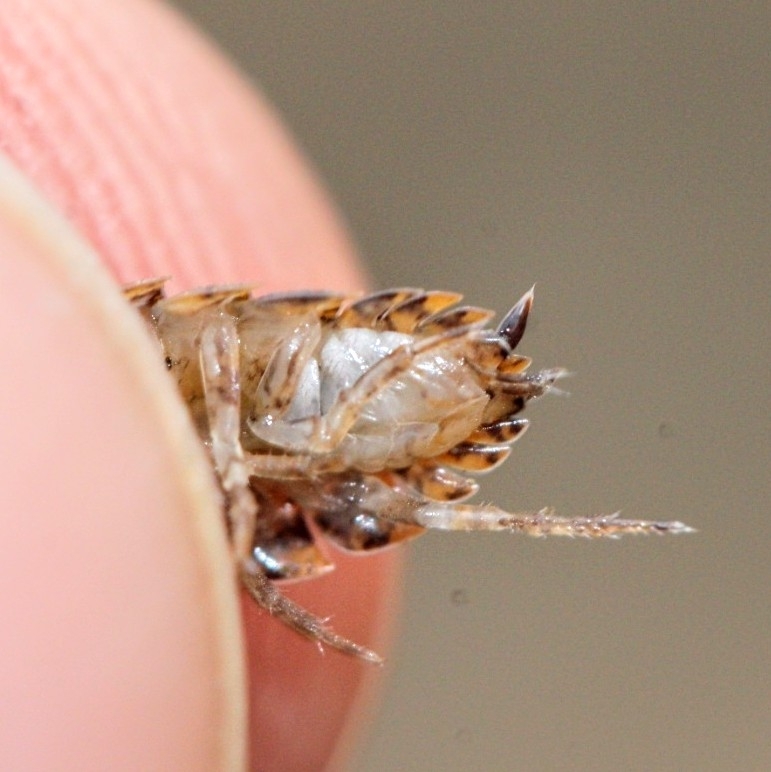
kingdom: Animalia
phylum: Arthropoda
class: Malacostraca
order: Isopoda
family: Trachelipodidae
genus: Trachelipus
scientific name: Trachelipus rathkii
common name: Isopod
